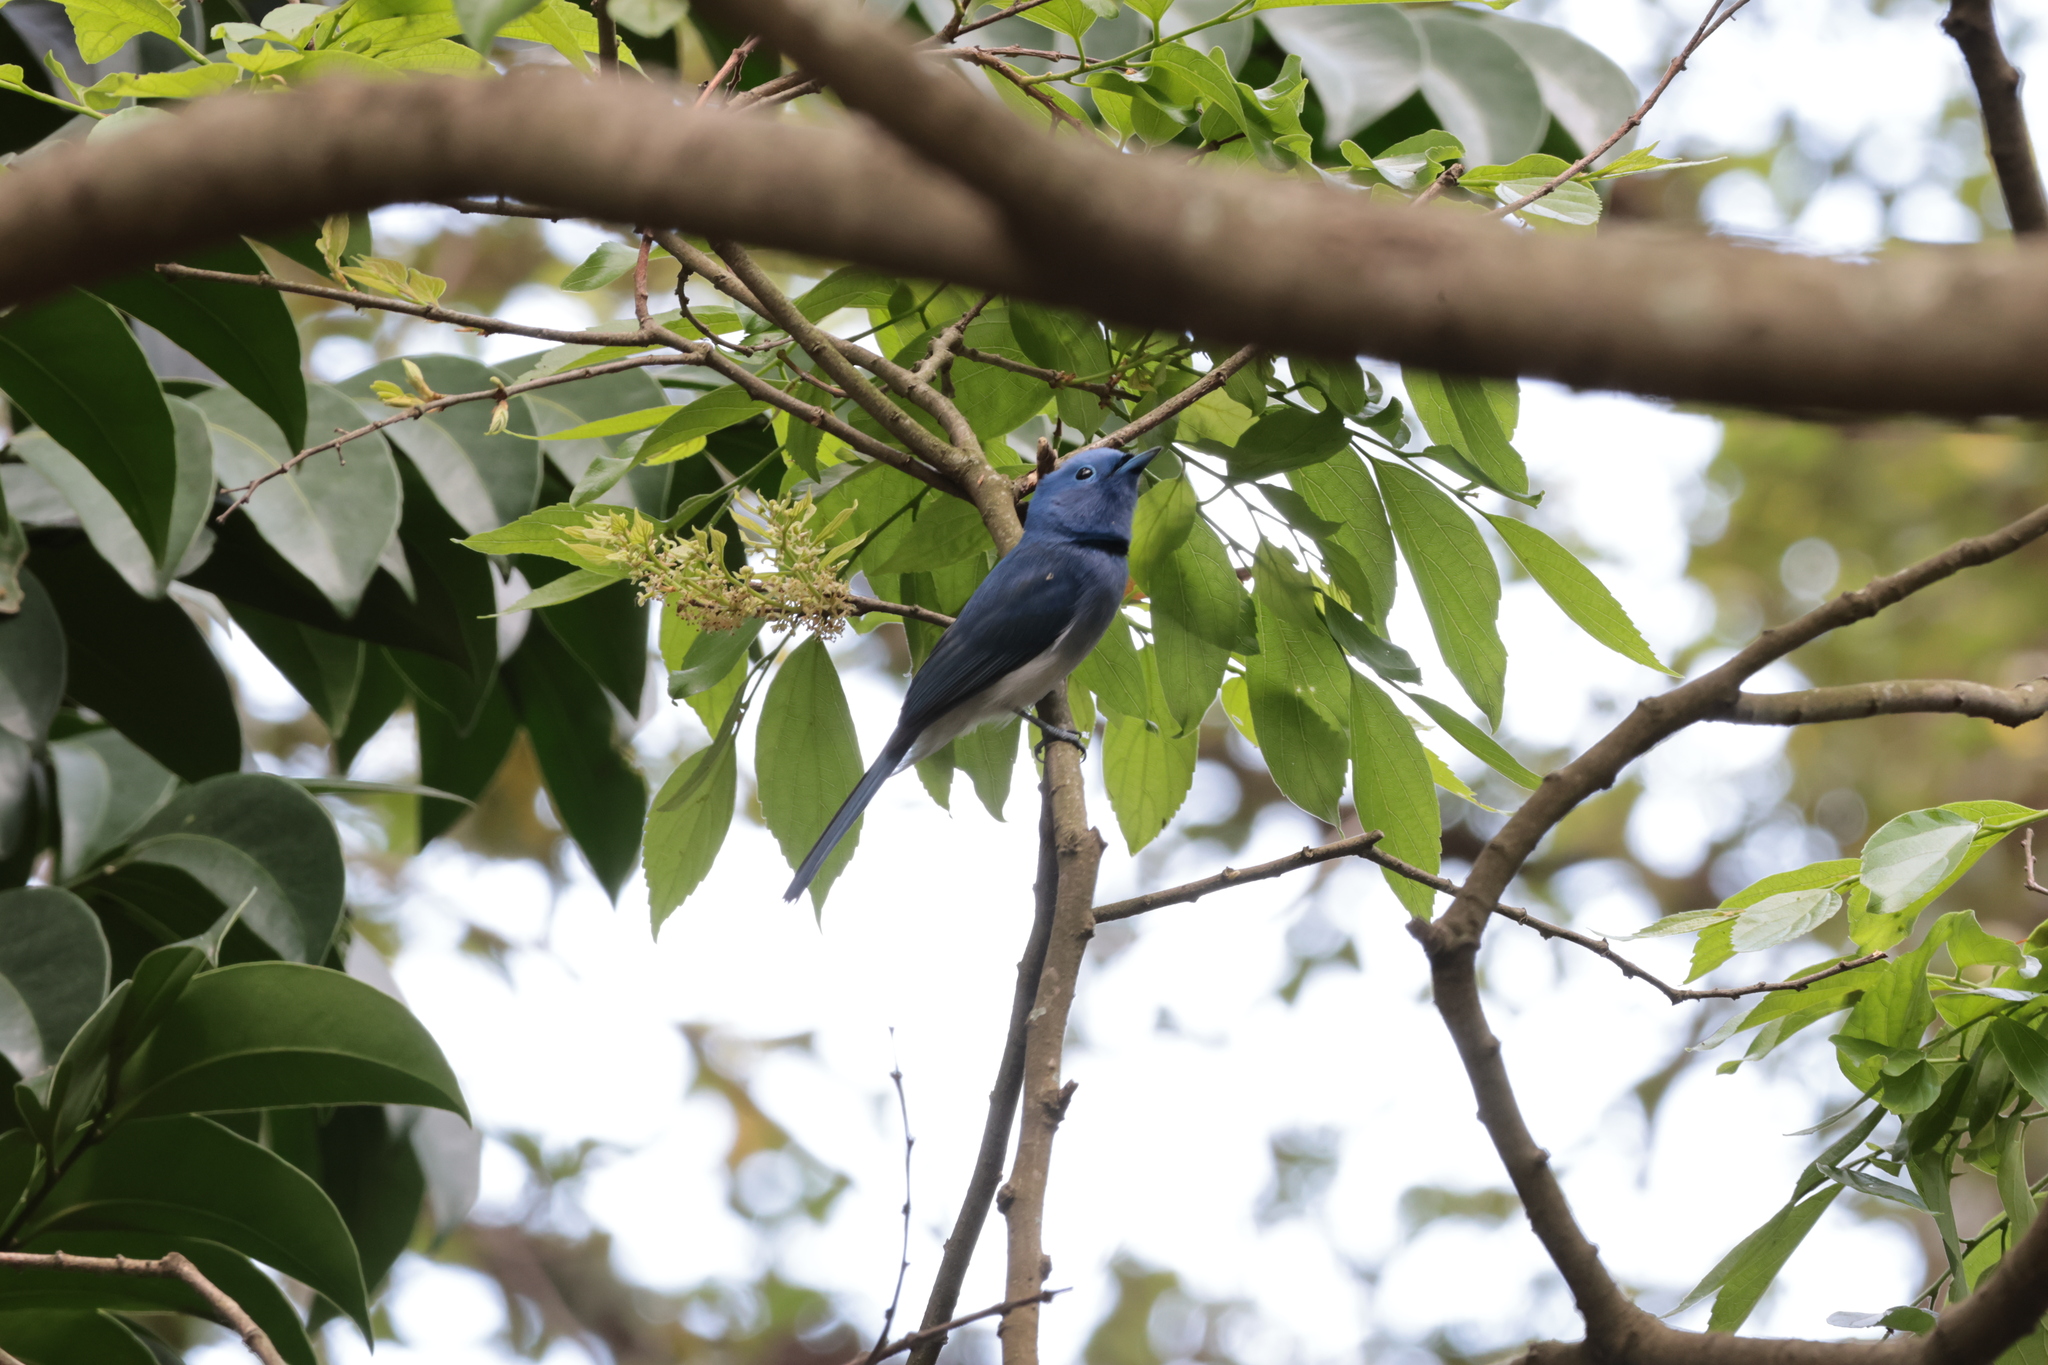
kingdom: Animalia
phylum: Chordata
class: Aves
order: Passeriformes
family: Monarchidae
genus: Hypothymis
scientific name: Hypothymis azurea
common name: Black-naped monarch
